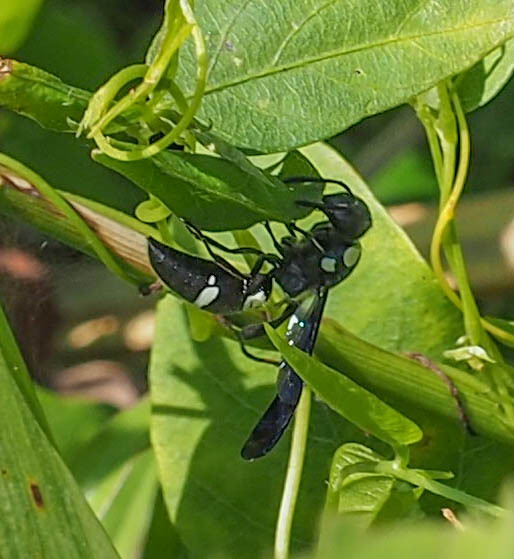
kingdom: Animalia
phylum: Arthropoda
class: Insecta
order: Hymenoptera
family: Eumenidae
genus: Pseudodynerus
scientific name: Pseudodynerus quadrisectus
